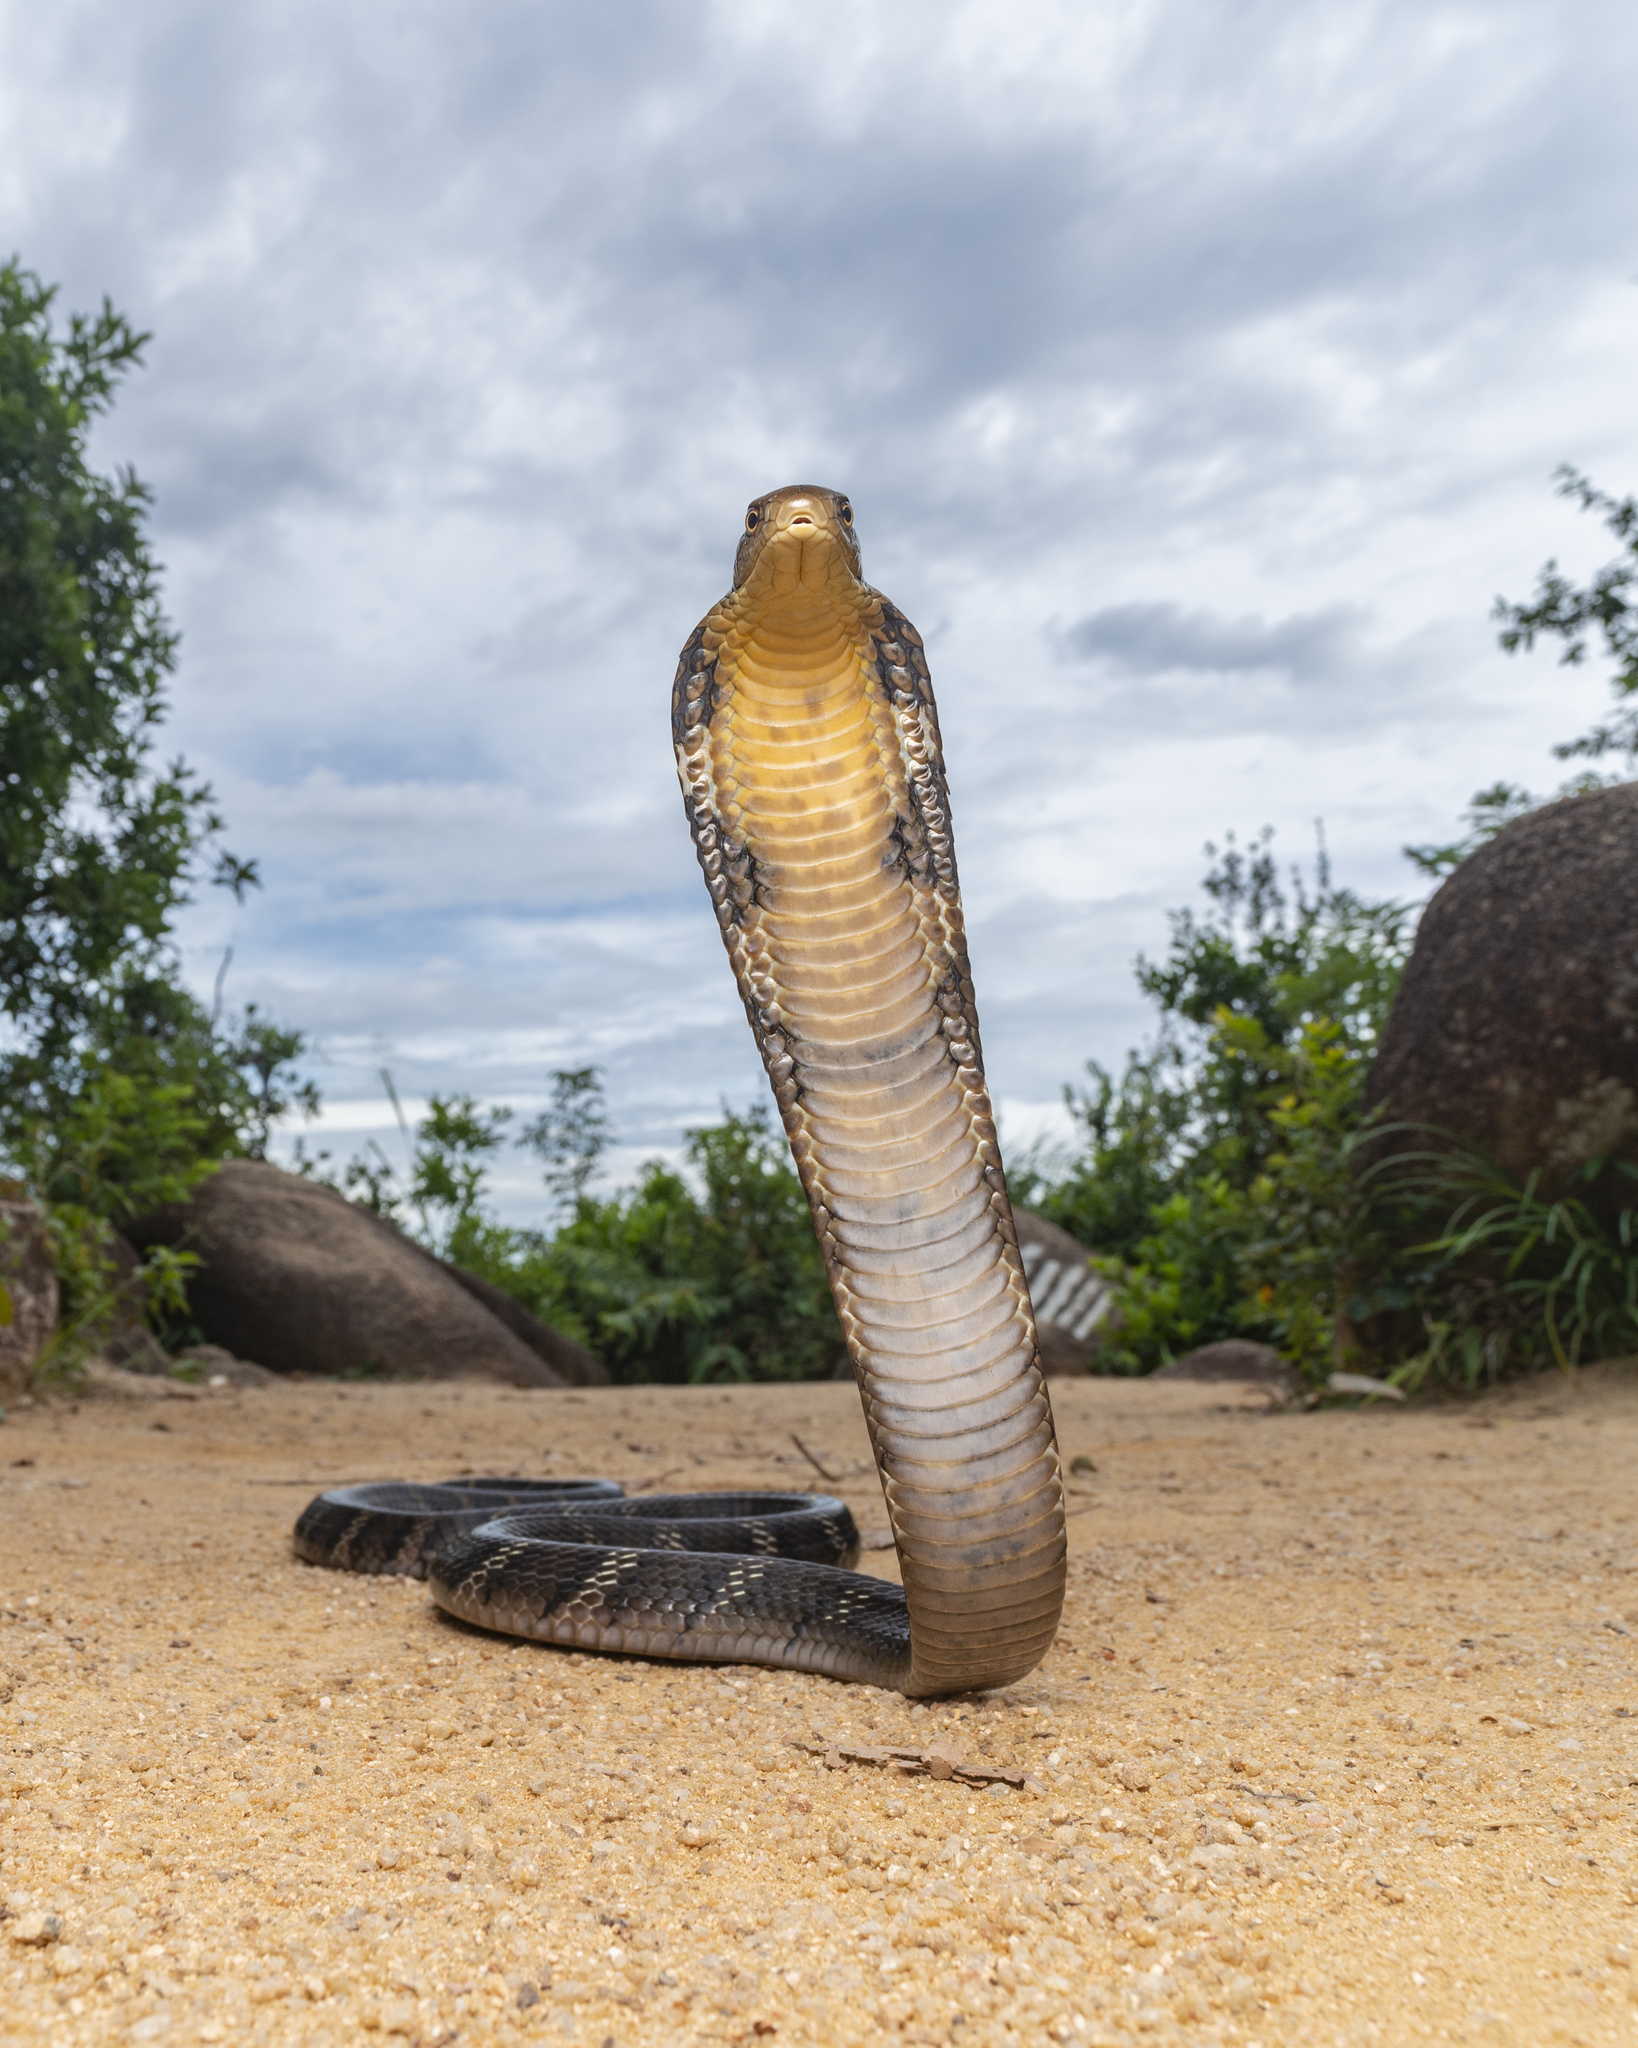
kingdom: Animalia
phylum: Chordata
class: Squamata
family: Elapidae
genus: Ophiophagus
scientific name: Ophiophagus hannah
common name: Hamadryad
